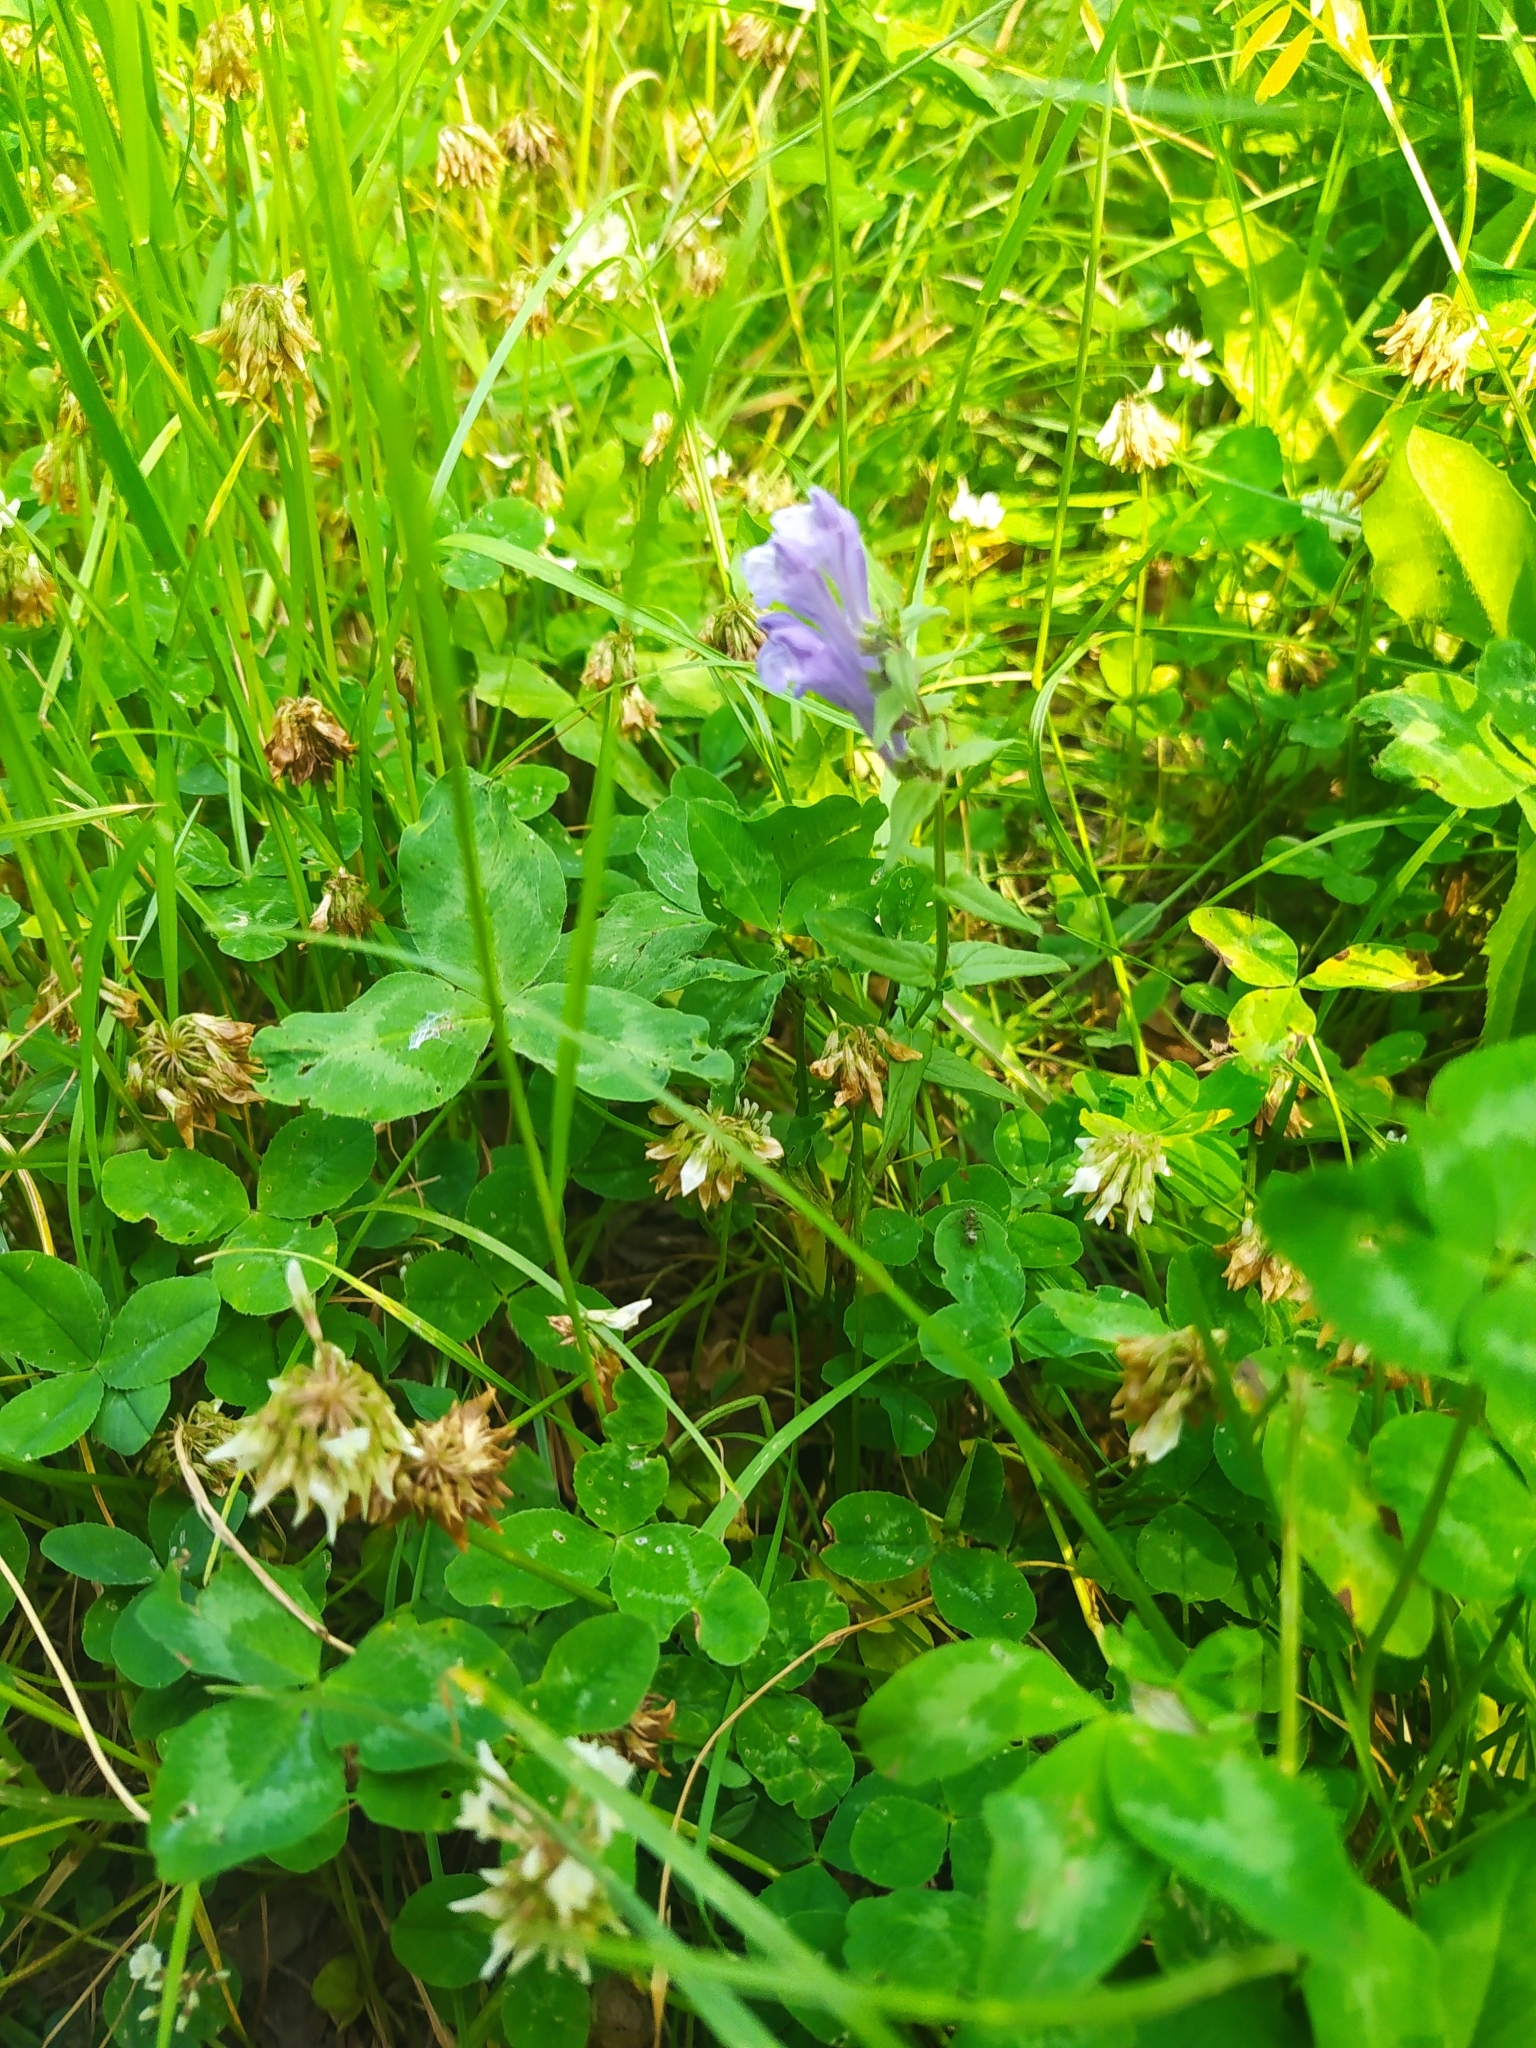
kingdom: Plantae
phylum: Tracheophyta
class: Magnoliopsida
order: Lamiales
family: Lamiaceae
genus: Scutellaria
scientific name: Scutellaria hastifolia
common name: Norfolk skullcap
